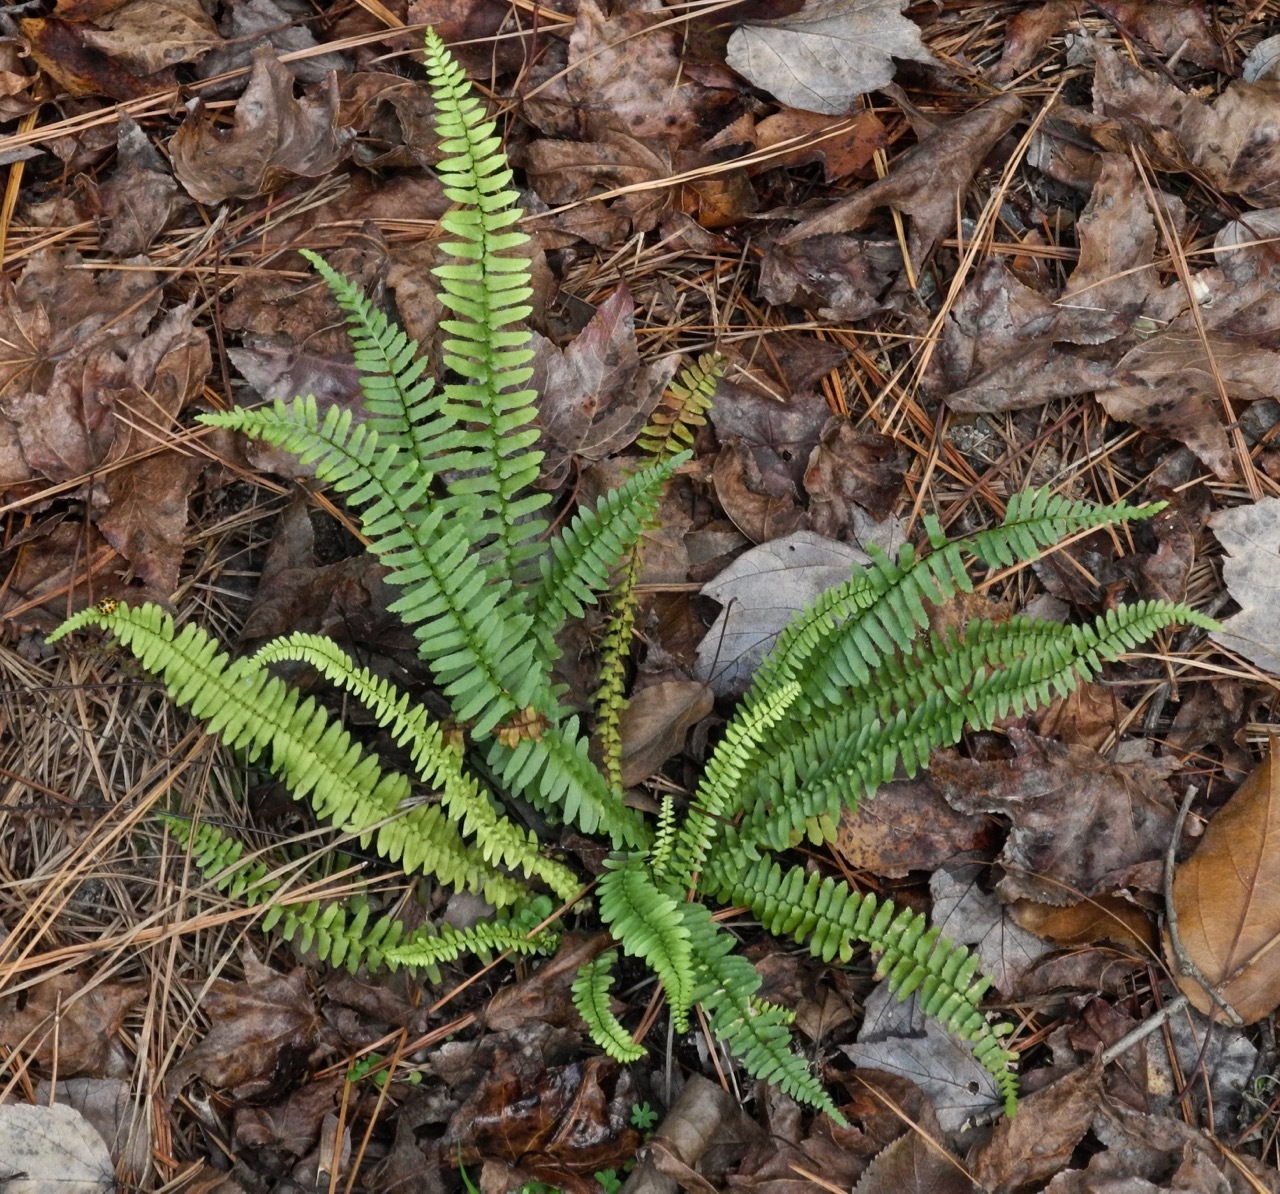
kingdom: Plantae
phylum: Tracheophyta
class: Polypodiopsida
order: Polypodiales
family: Aspleniaceae
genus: Asplenium
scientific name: Asplenium platyneuron
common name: Ebony spleenwort
